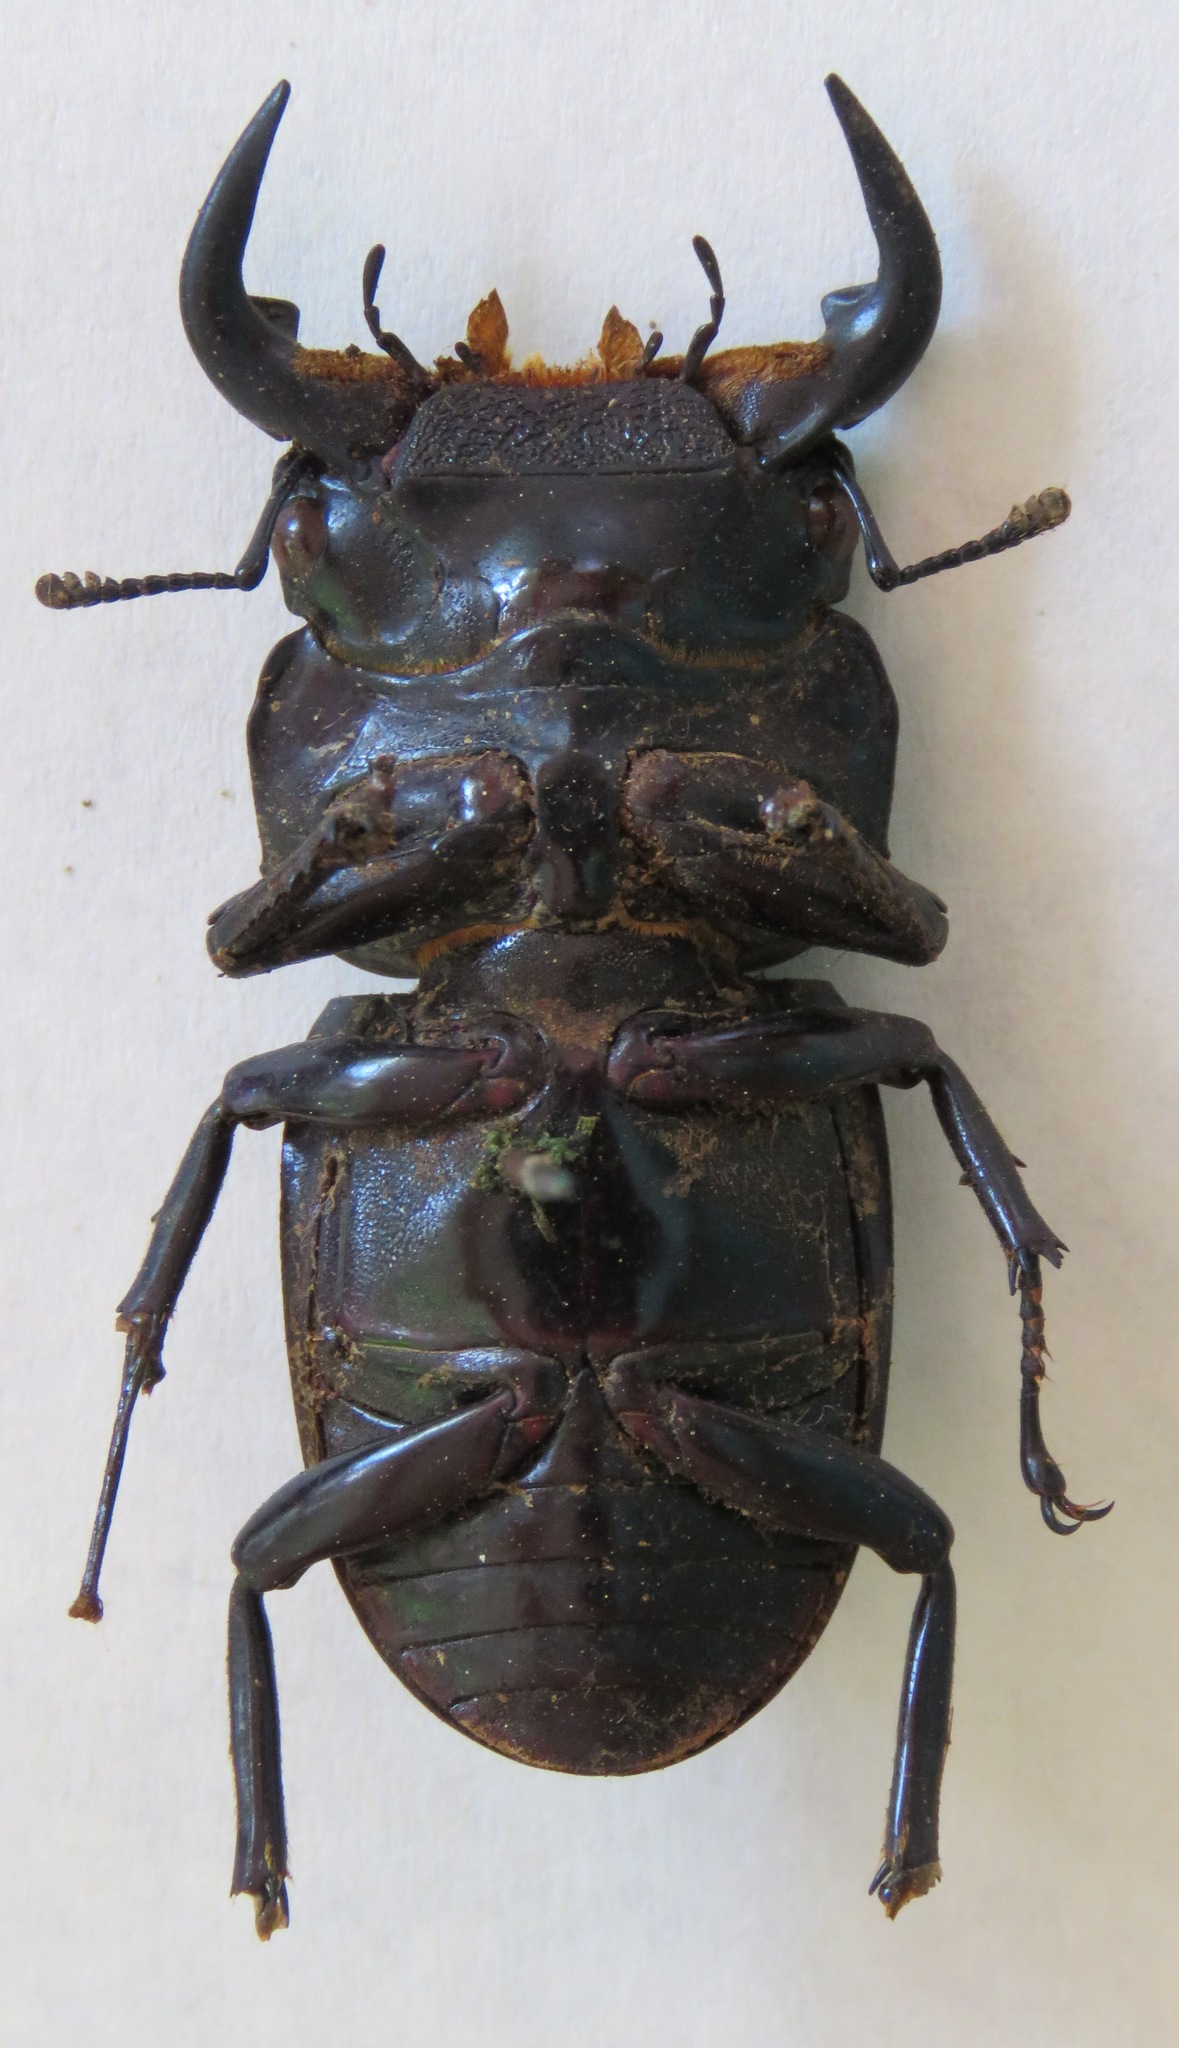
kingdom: Animalia
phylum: Arthropoda
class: Insecta
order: Coleoptera
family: Lucanidae
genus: Dorcus
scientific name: Dorcus antaeus
